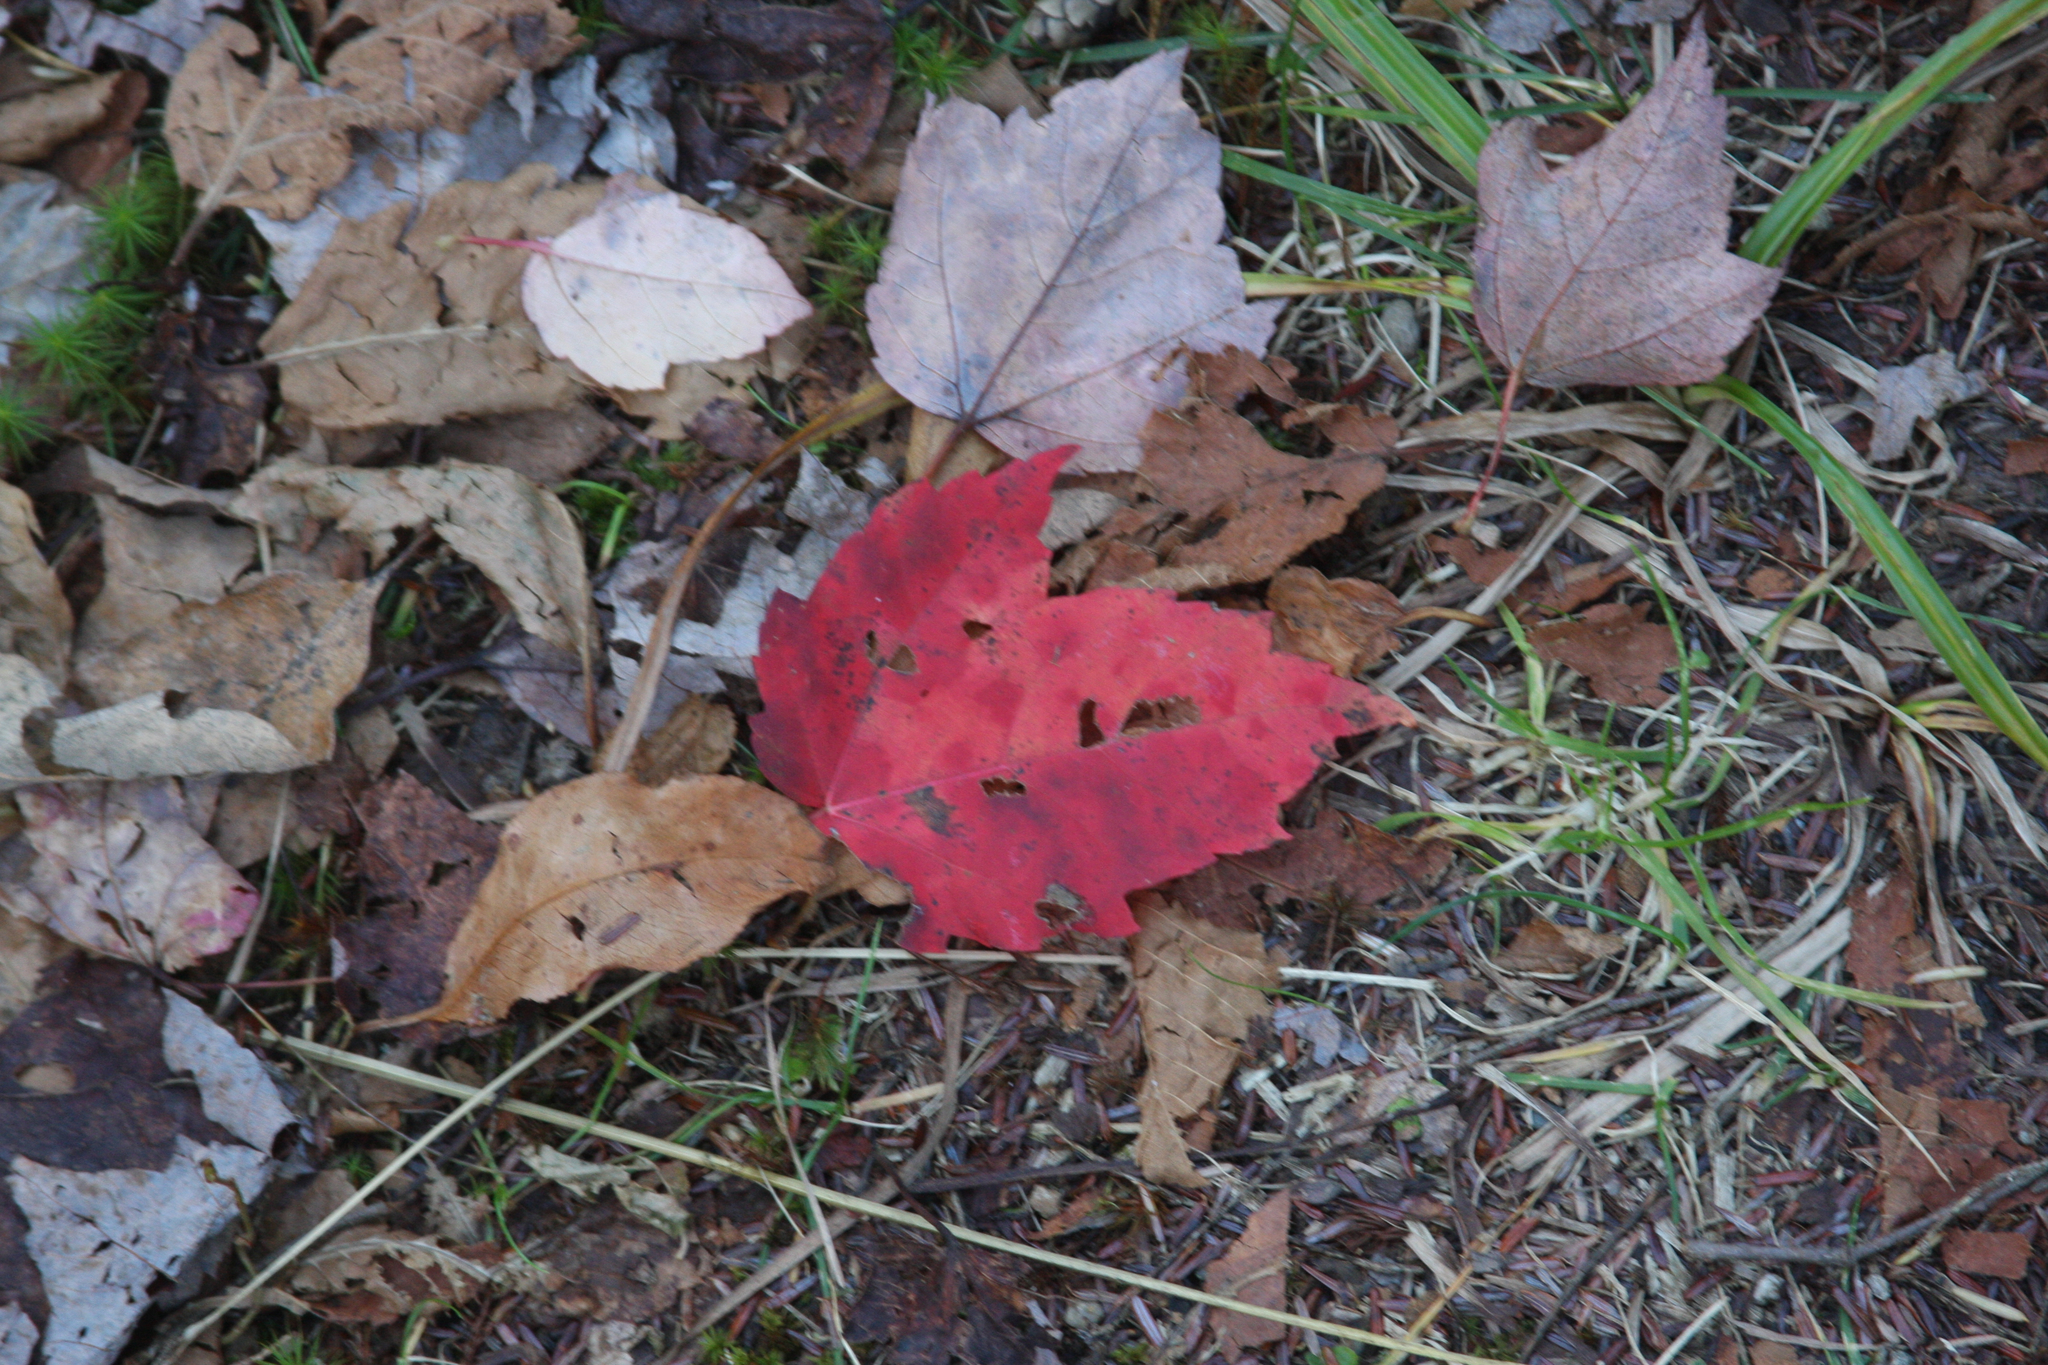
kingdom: Plantae
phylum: Tracheophyta
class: Magnoliopsida
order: Sapindales
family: Sapindaceae
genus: Acer
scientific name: Acer rubrum
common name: Red maple
